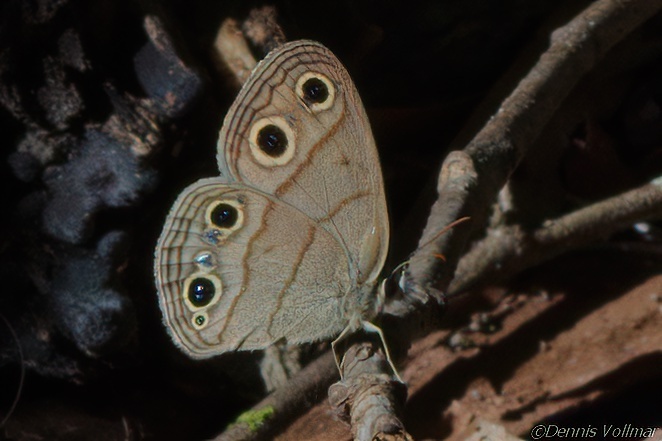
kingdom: Animalia
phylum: Arthropoda
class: Insecta
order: Lepidoptera
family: Nymphalidae
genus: Euptychia
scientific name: Euptychia cymela
